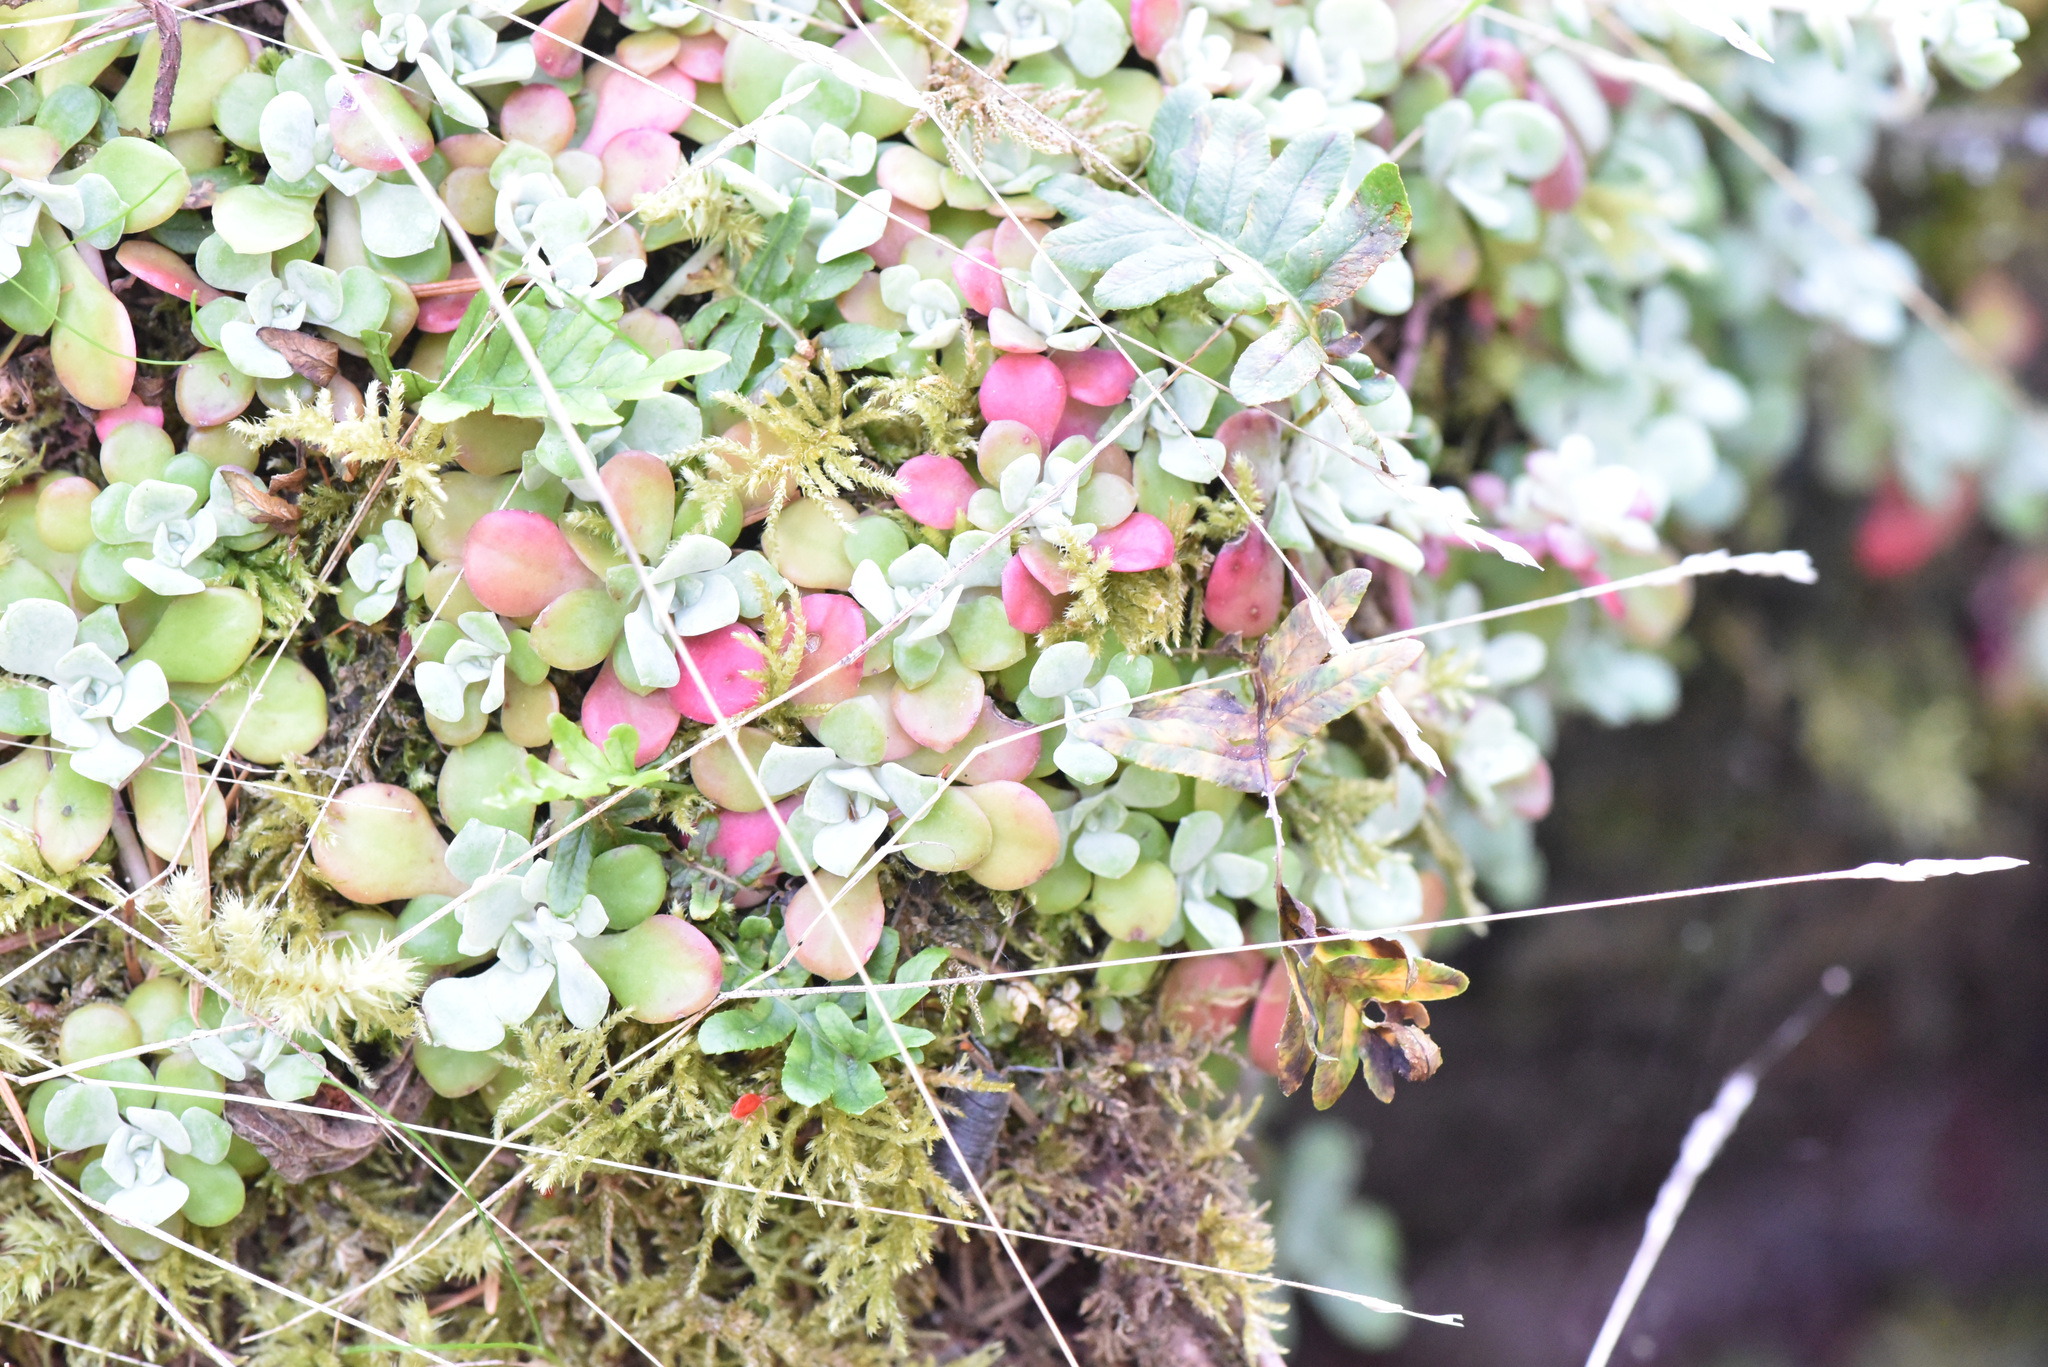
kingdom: Plantae
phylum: Tracheophyta
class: Magnoliopsida
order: Saxifragales
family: Crassulaceae
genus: Sedum
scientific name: Sedum spathulifolium
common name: Colorado stonecrop
